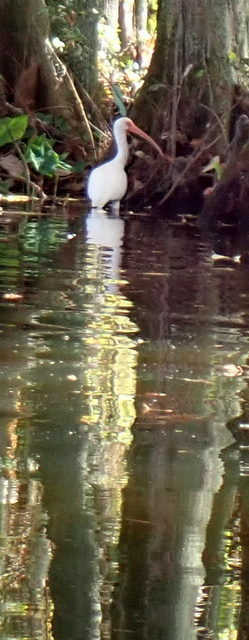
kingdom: Animalia
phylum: Chordata
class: Aves
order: Pelecaniformes
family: Threskiornithidae
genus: Eudocimus
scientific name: Eudocimus albus
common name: White ibis
